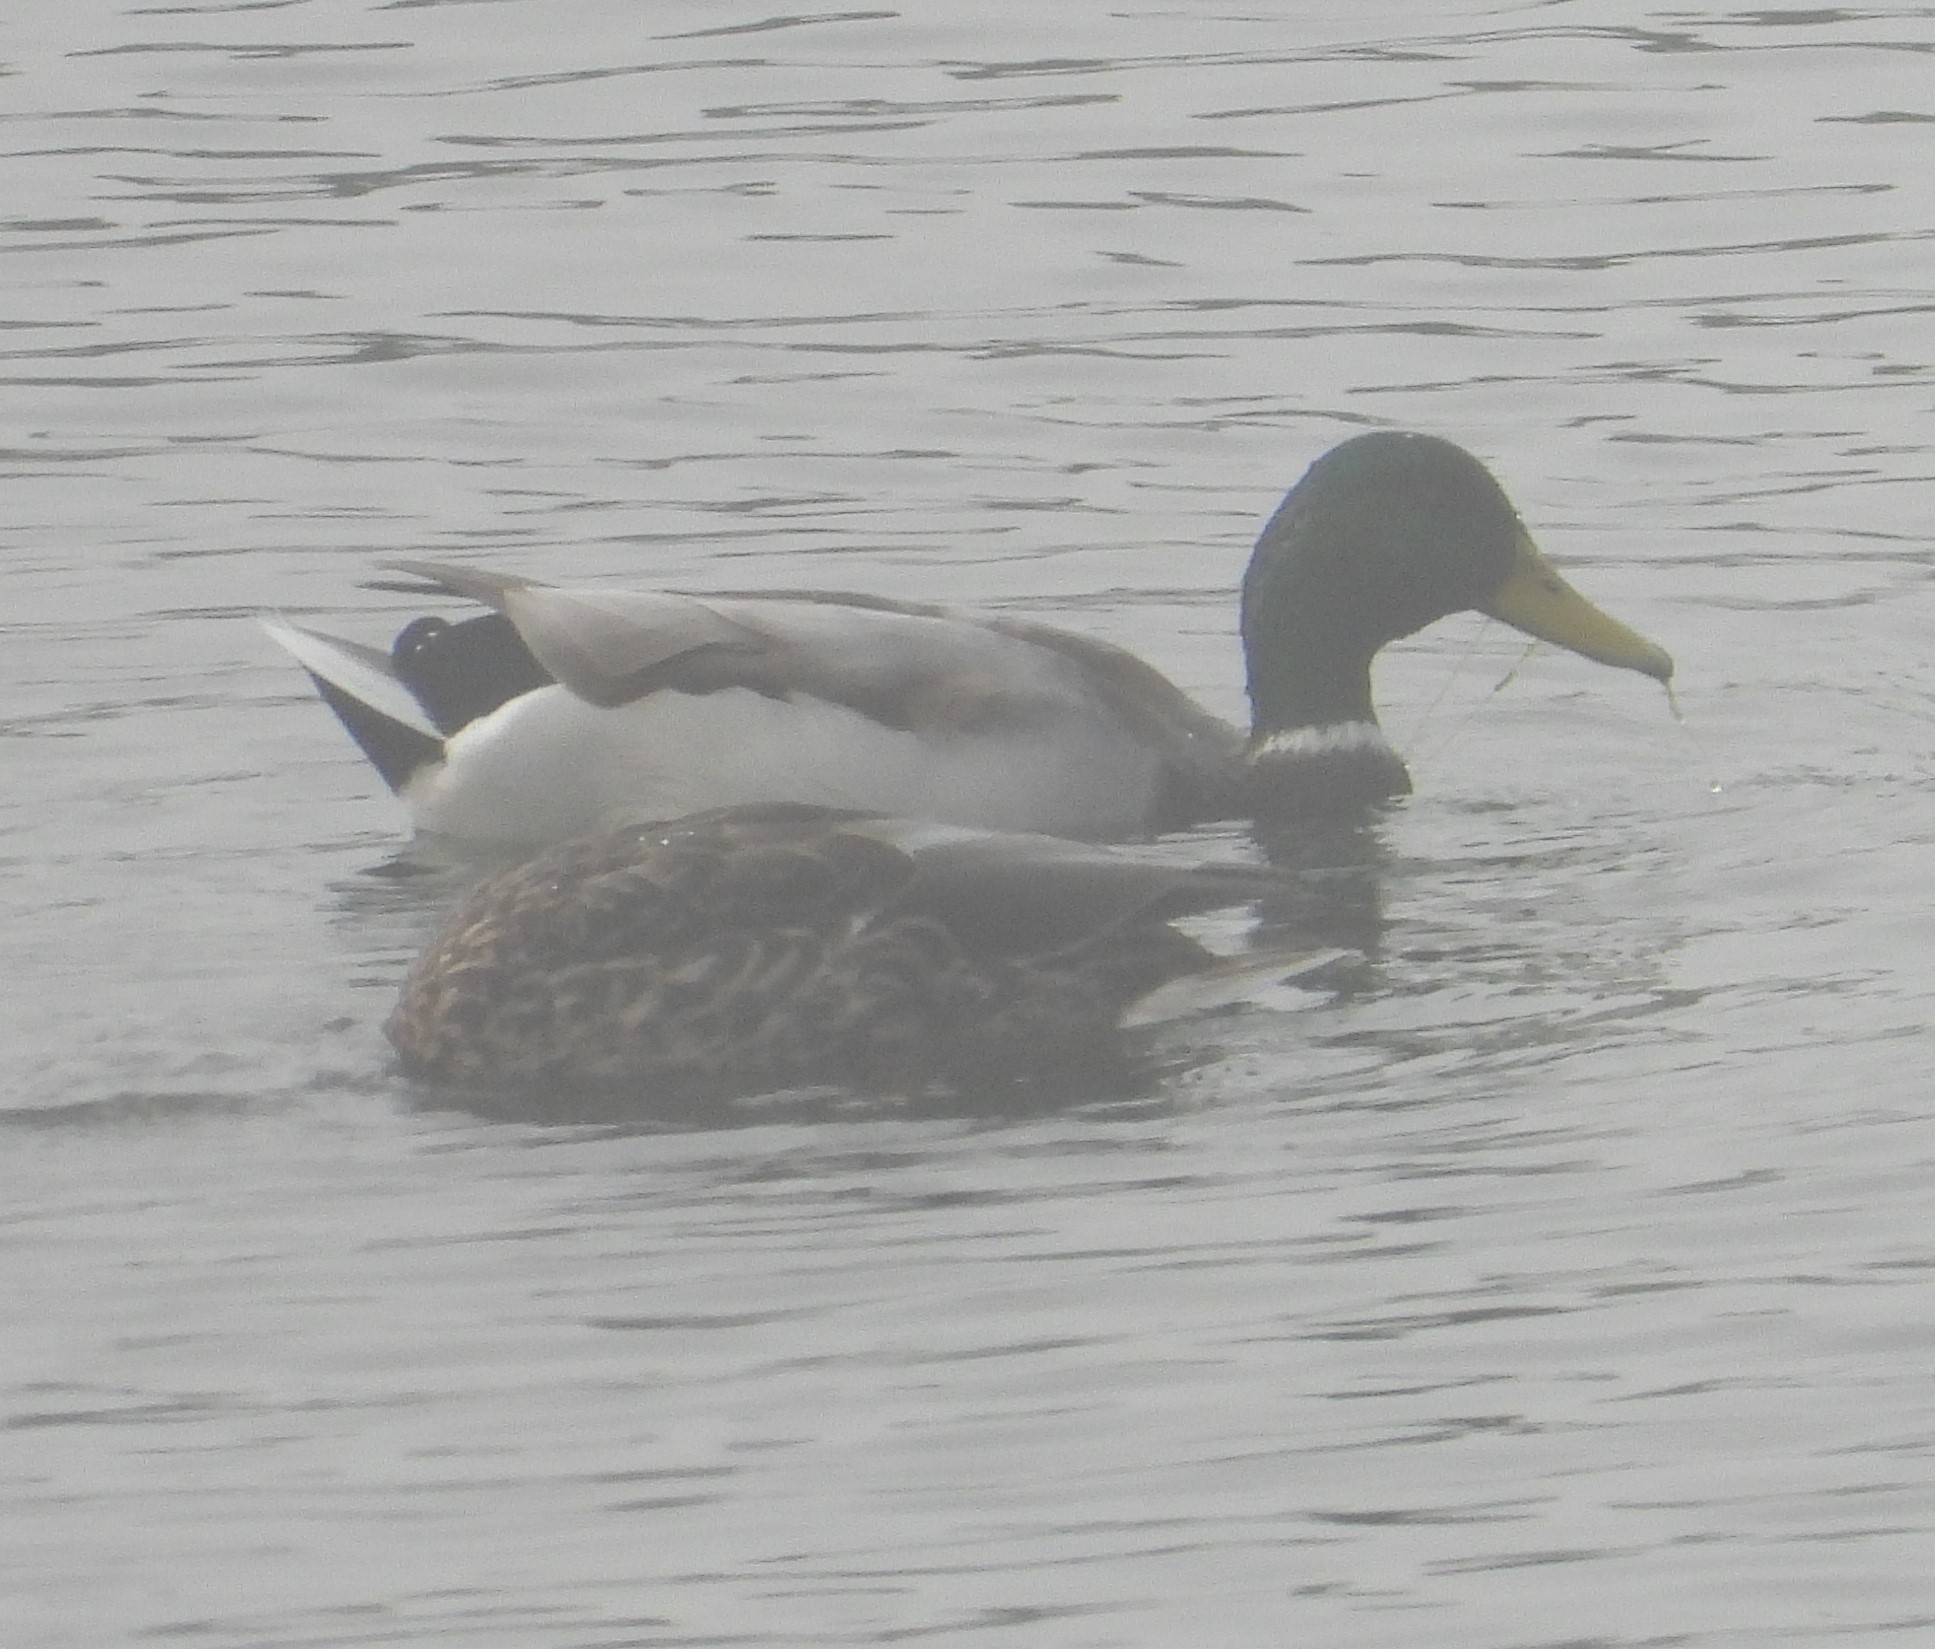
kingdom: Animalia
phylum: Chordata
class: Aves
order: Anseriformes
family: Anatidae
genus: Anas
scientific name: Anas platyrhynchos
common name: Mallard
